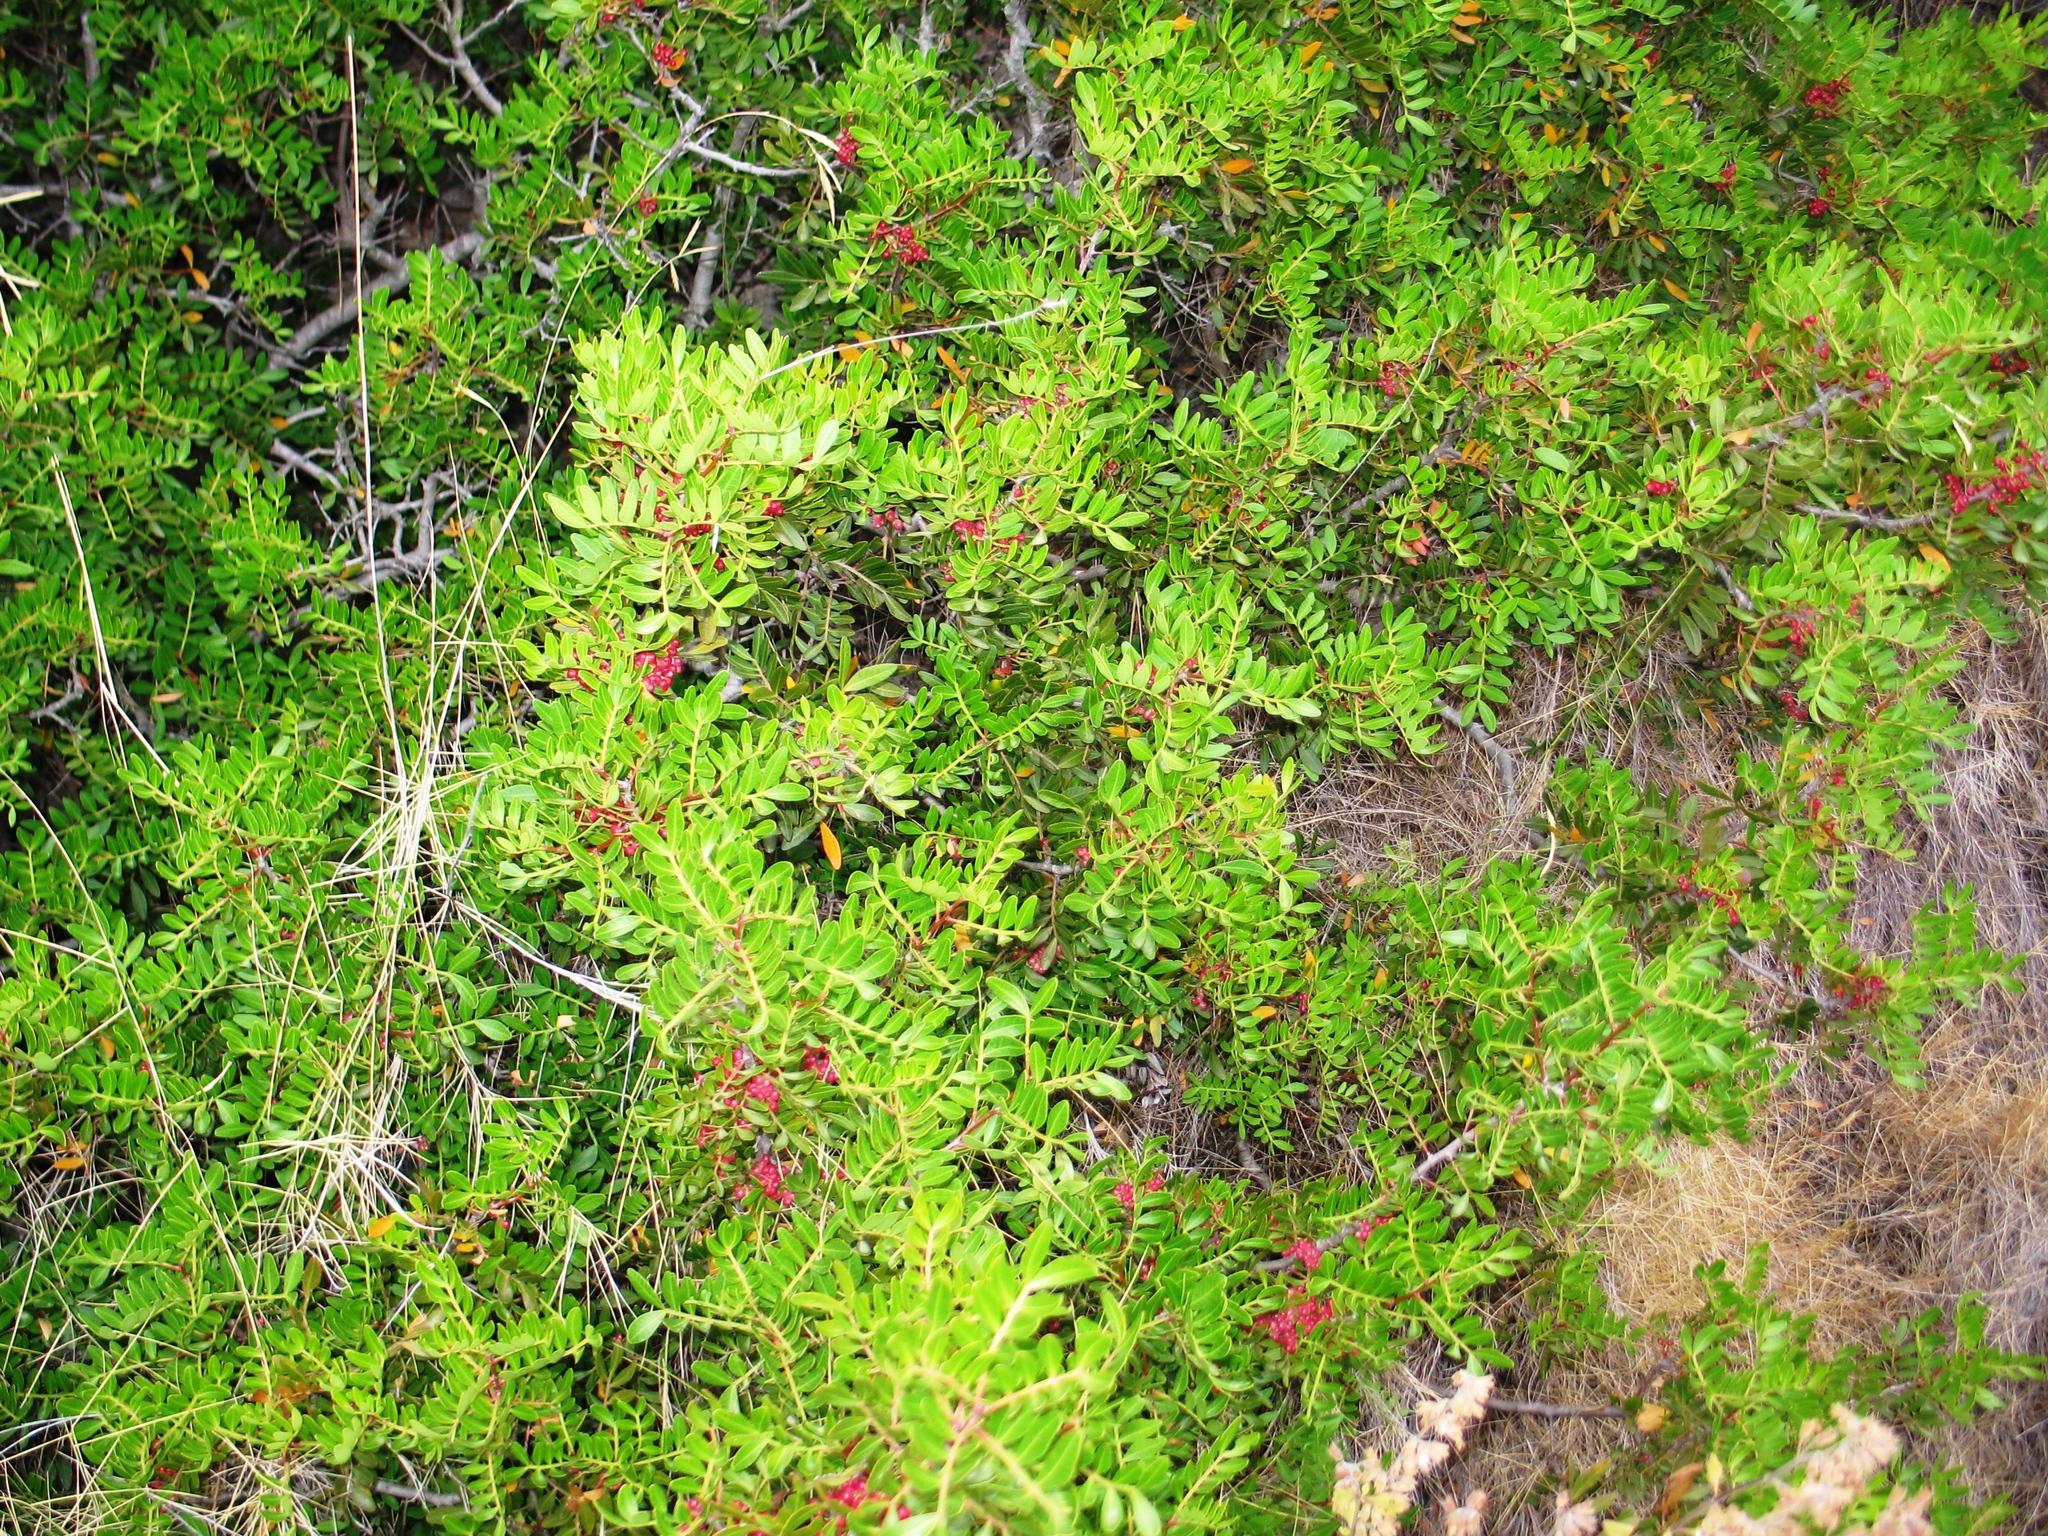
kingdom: Plantae
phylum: Tracheophyta
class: Magnoliopsida
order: Sapindales
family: Anacardiaceae
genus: Pistacia
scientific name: Pistacia lentiscus
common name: Lentisk
